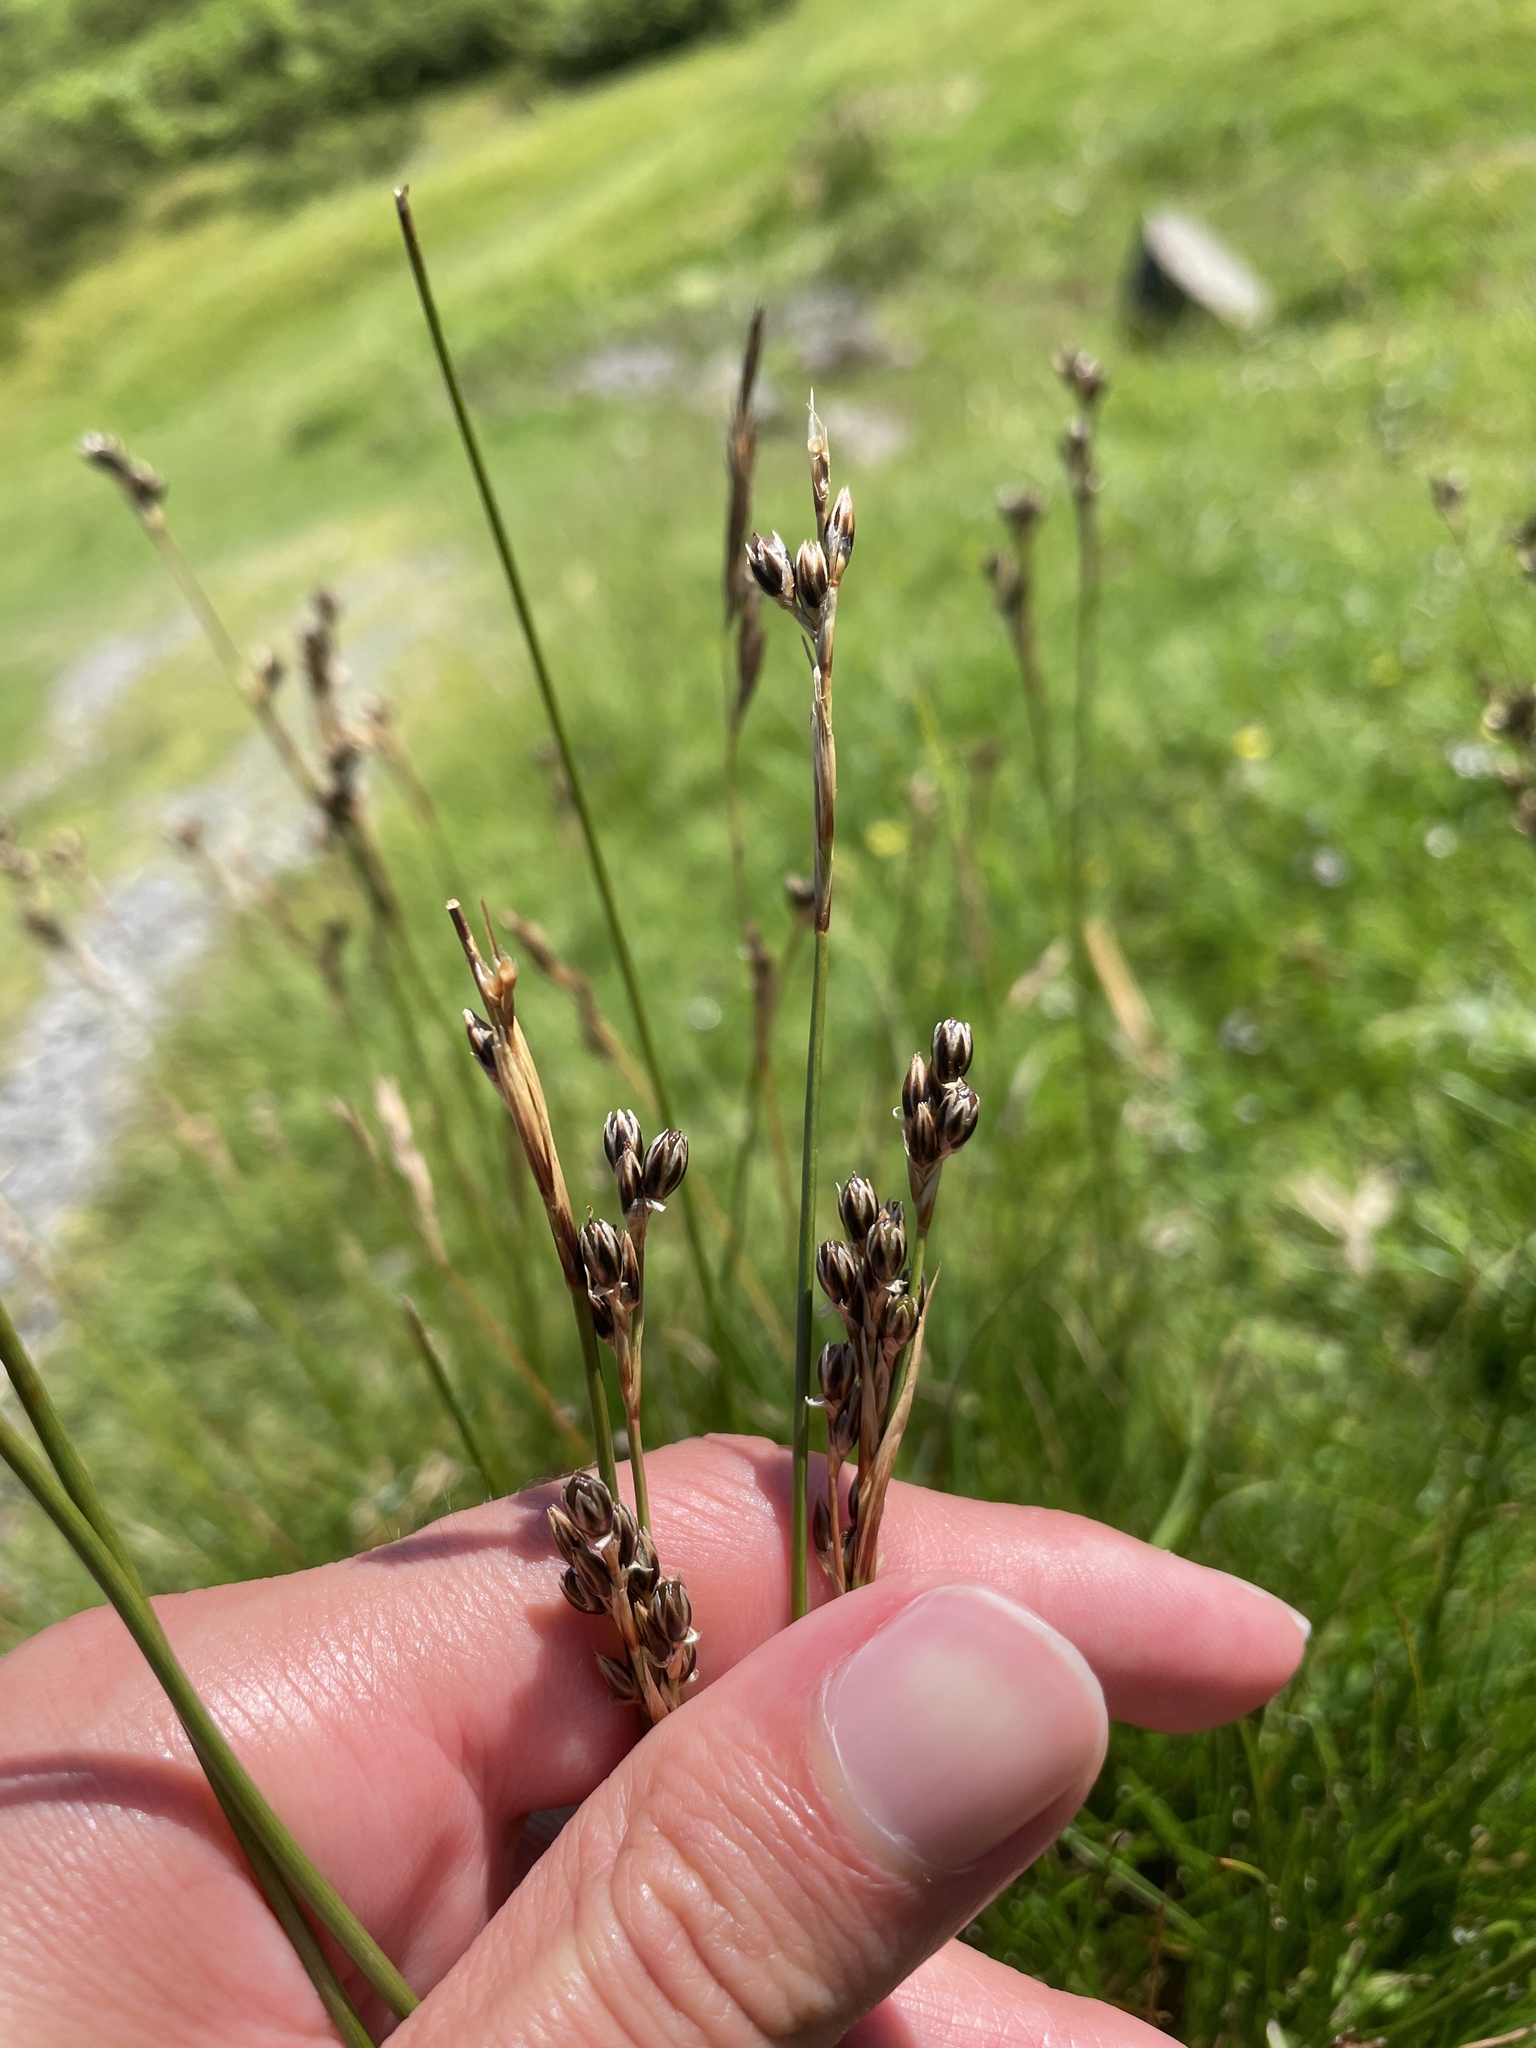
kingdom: Plantae
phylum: Tracheophyta
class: Liliopsida
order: Poales
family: Juncaceae
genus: Juncus
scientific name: Juncus squarrosus
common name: Heath rush
